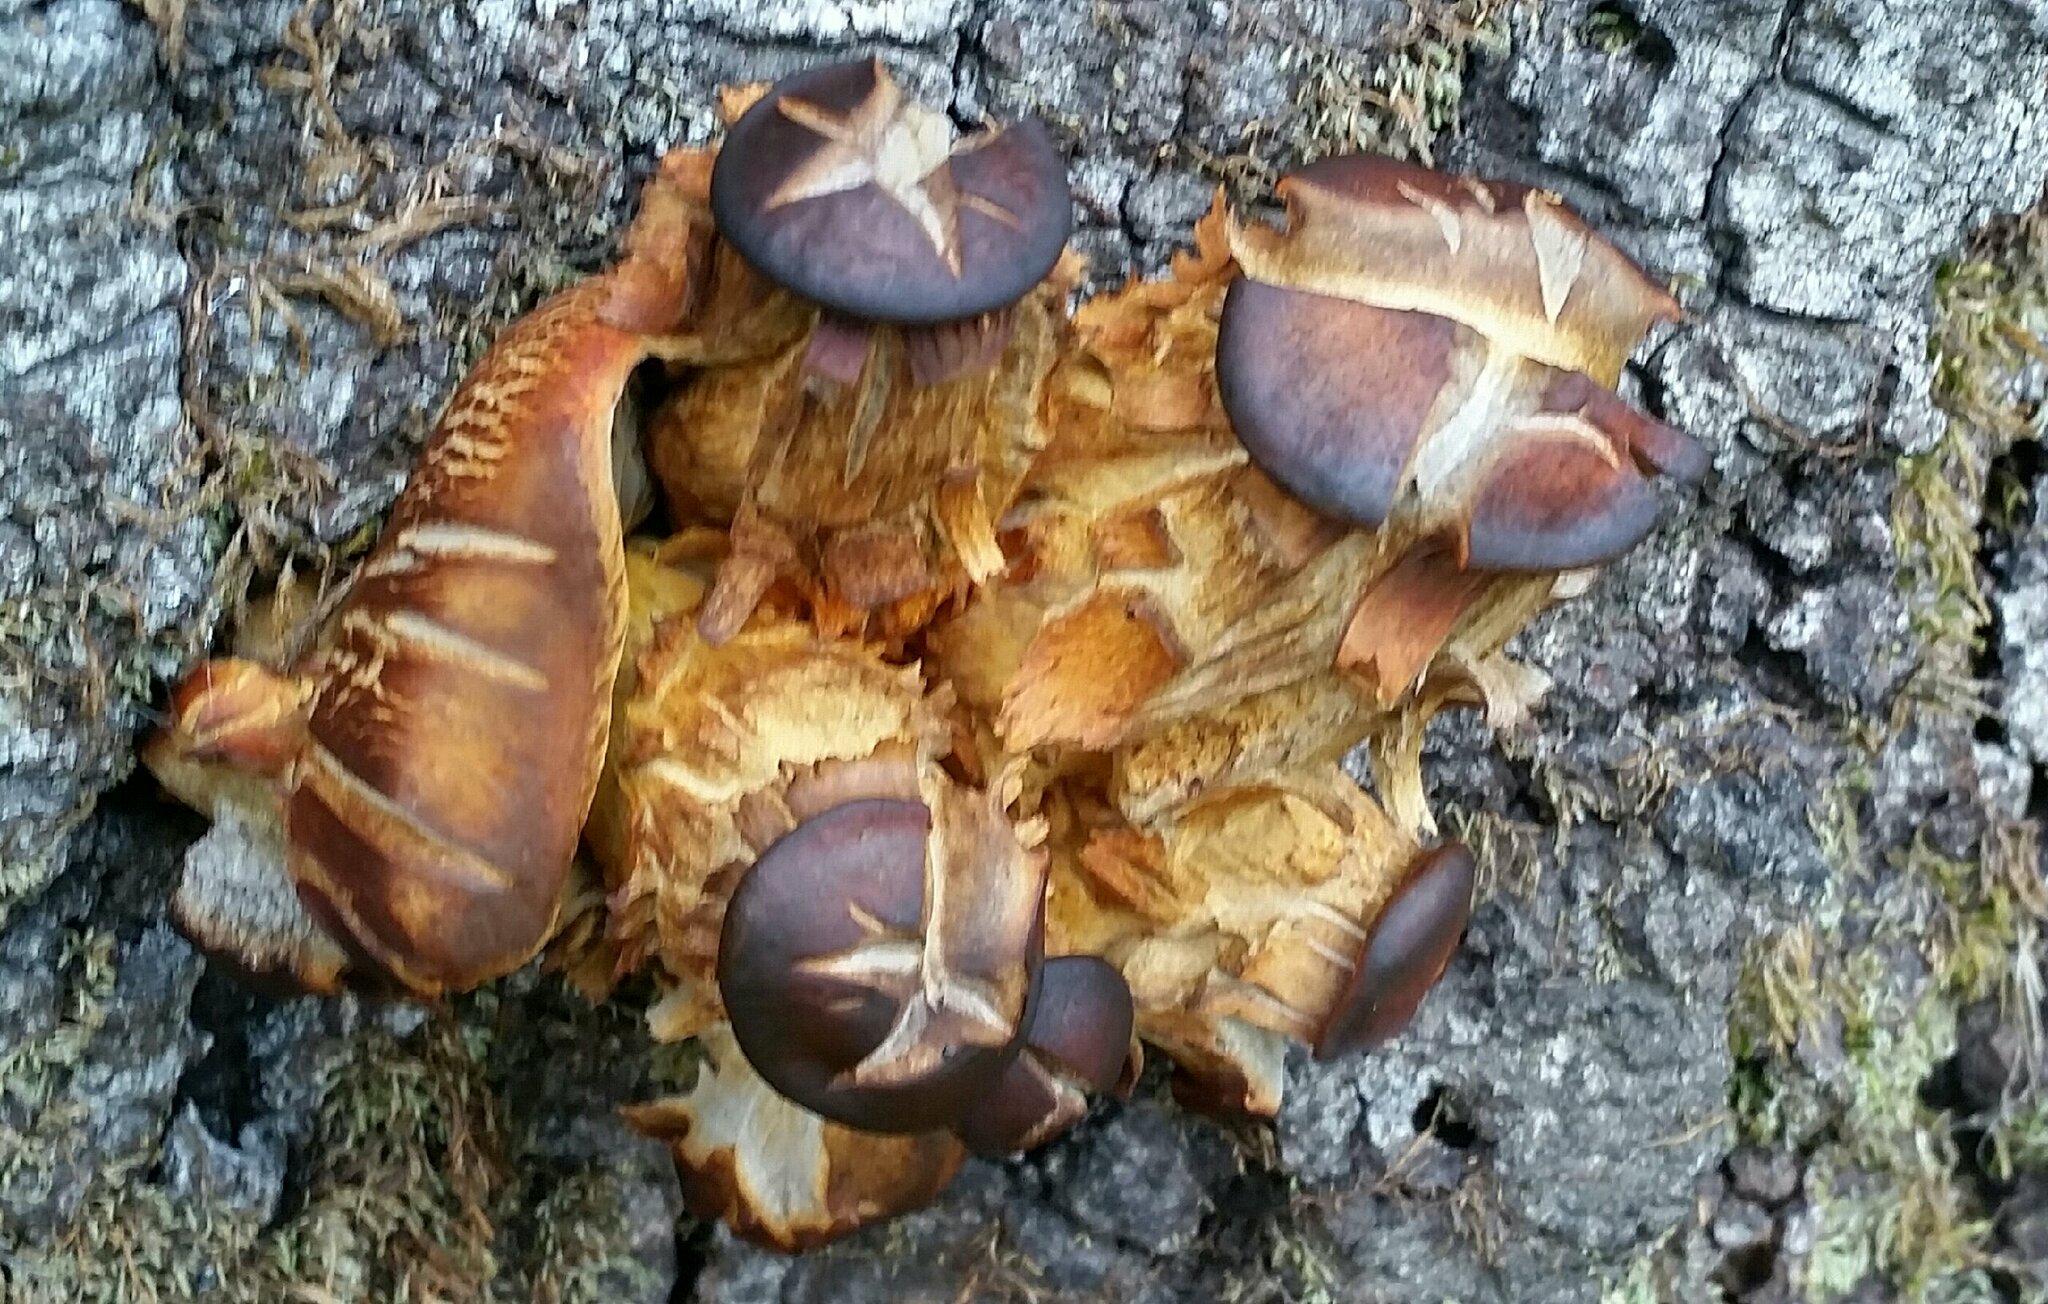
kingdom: Fungi
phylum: Basidiomycota
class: Agaricomycetes
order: Agaricales
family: Omphalotaceae
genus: Omphalotus
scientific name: Omphalotus olivascens
